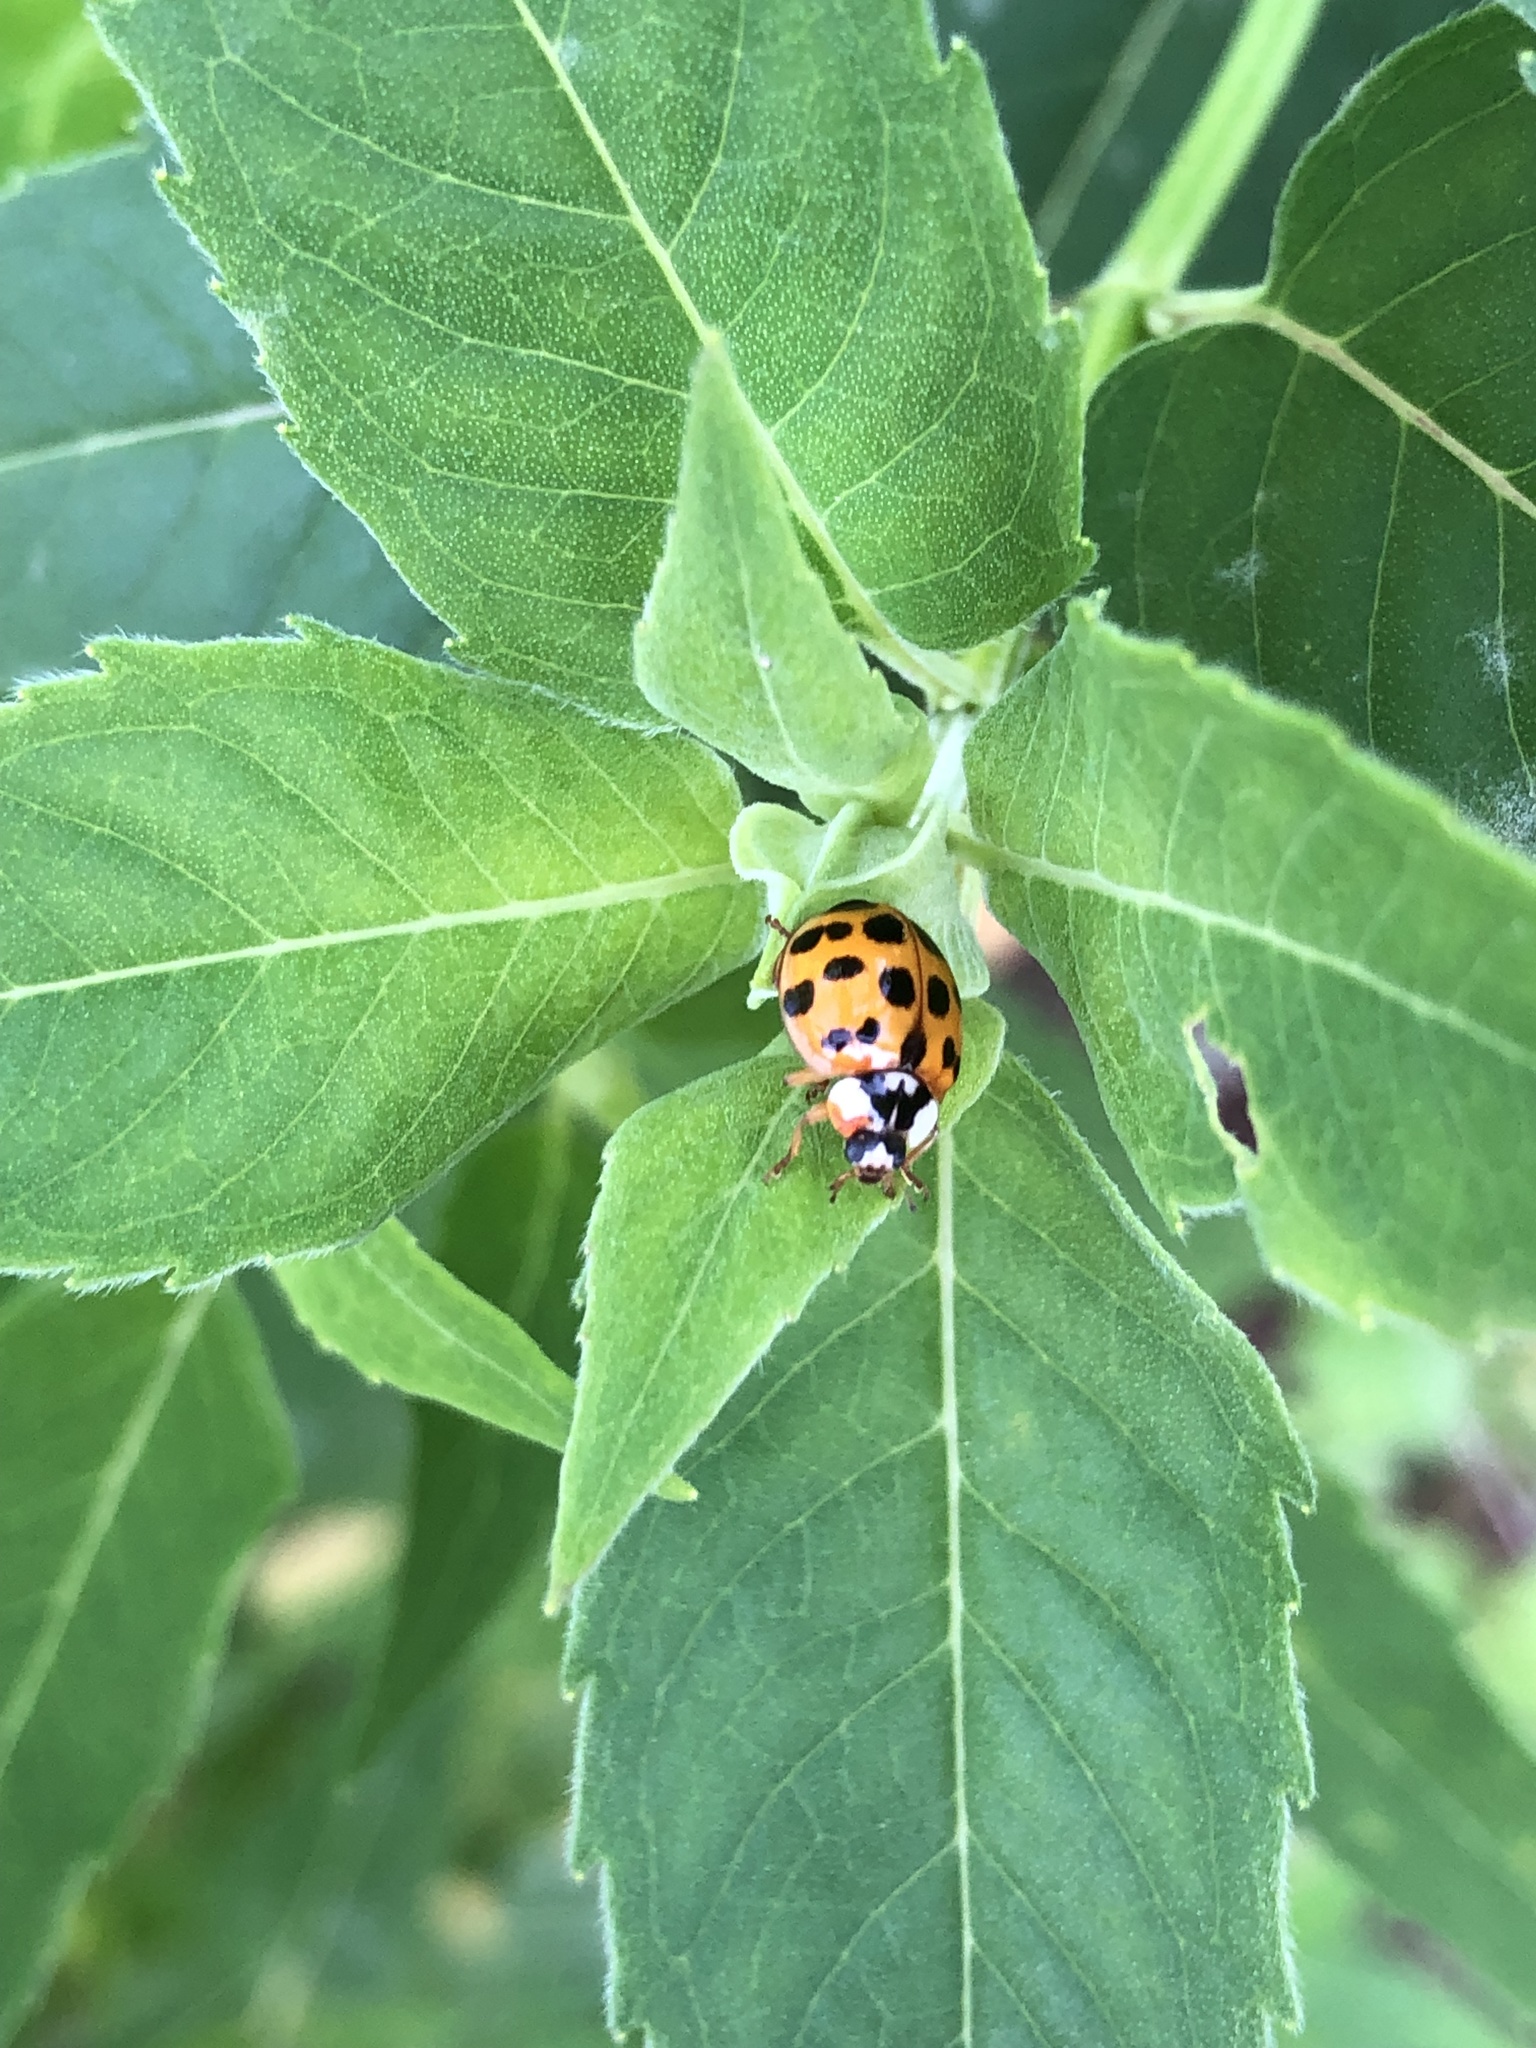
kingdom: Animalia
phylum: Arthropoda
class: Insecta
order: Coleoptera
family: Coccinellidae
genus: Harmonia
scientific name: Harmonia axyridis
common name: Harlequin ladybird
